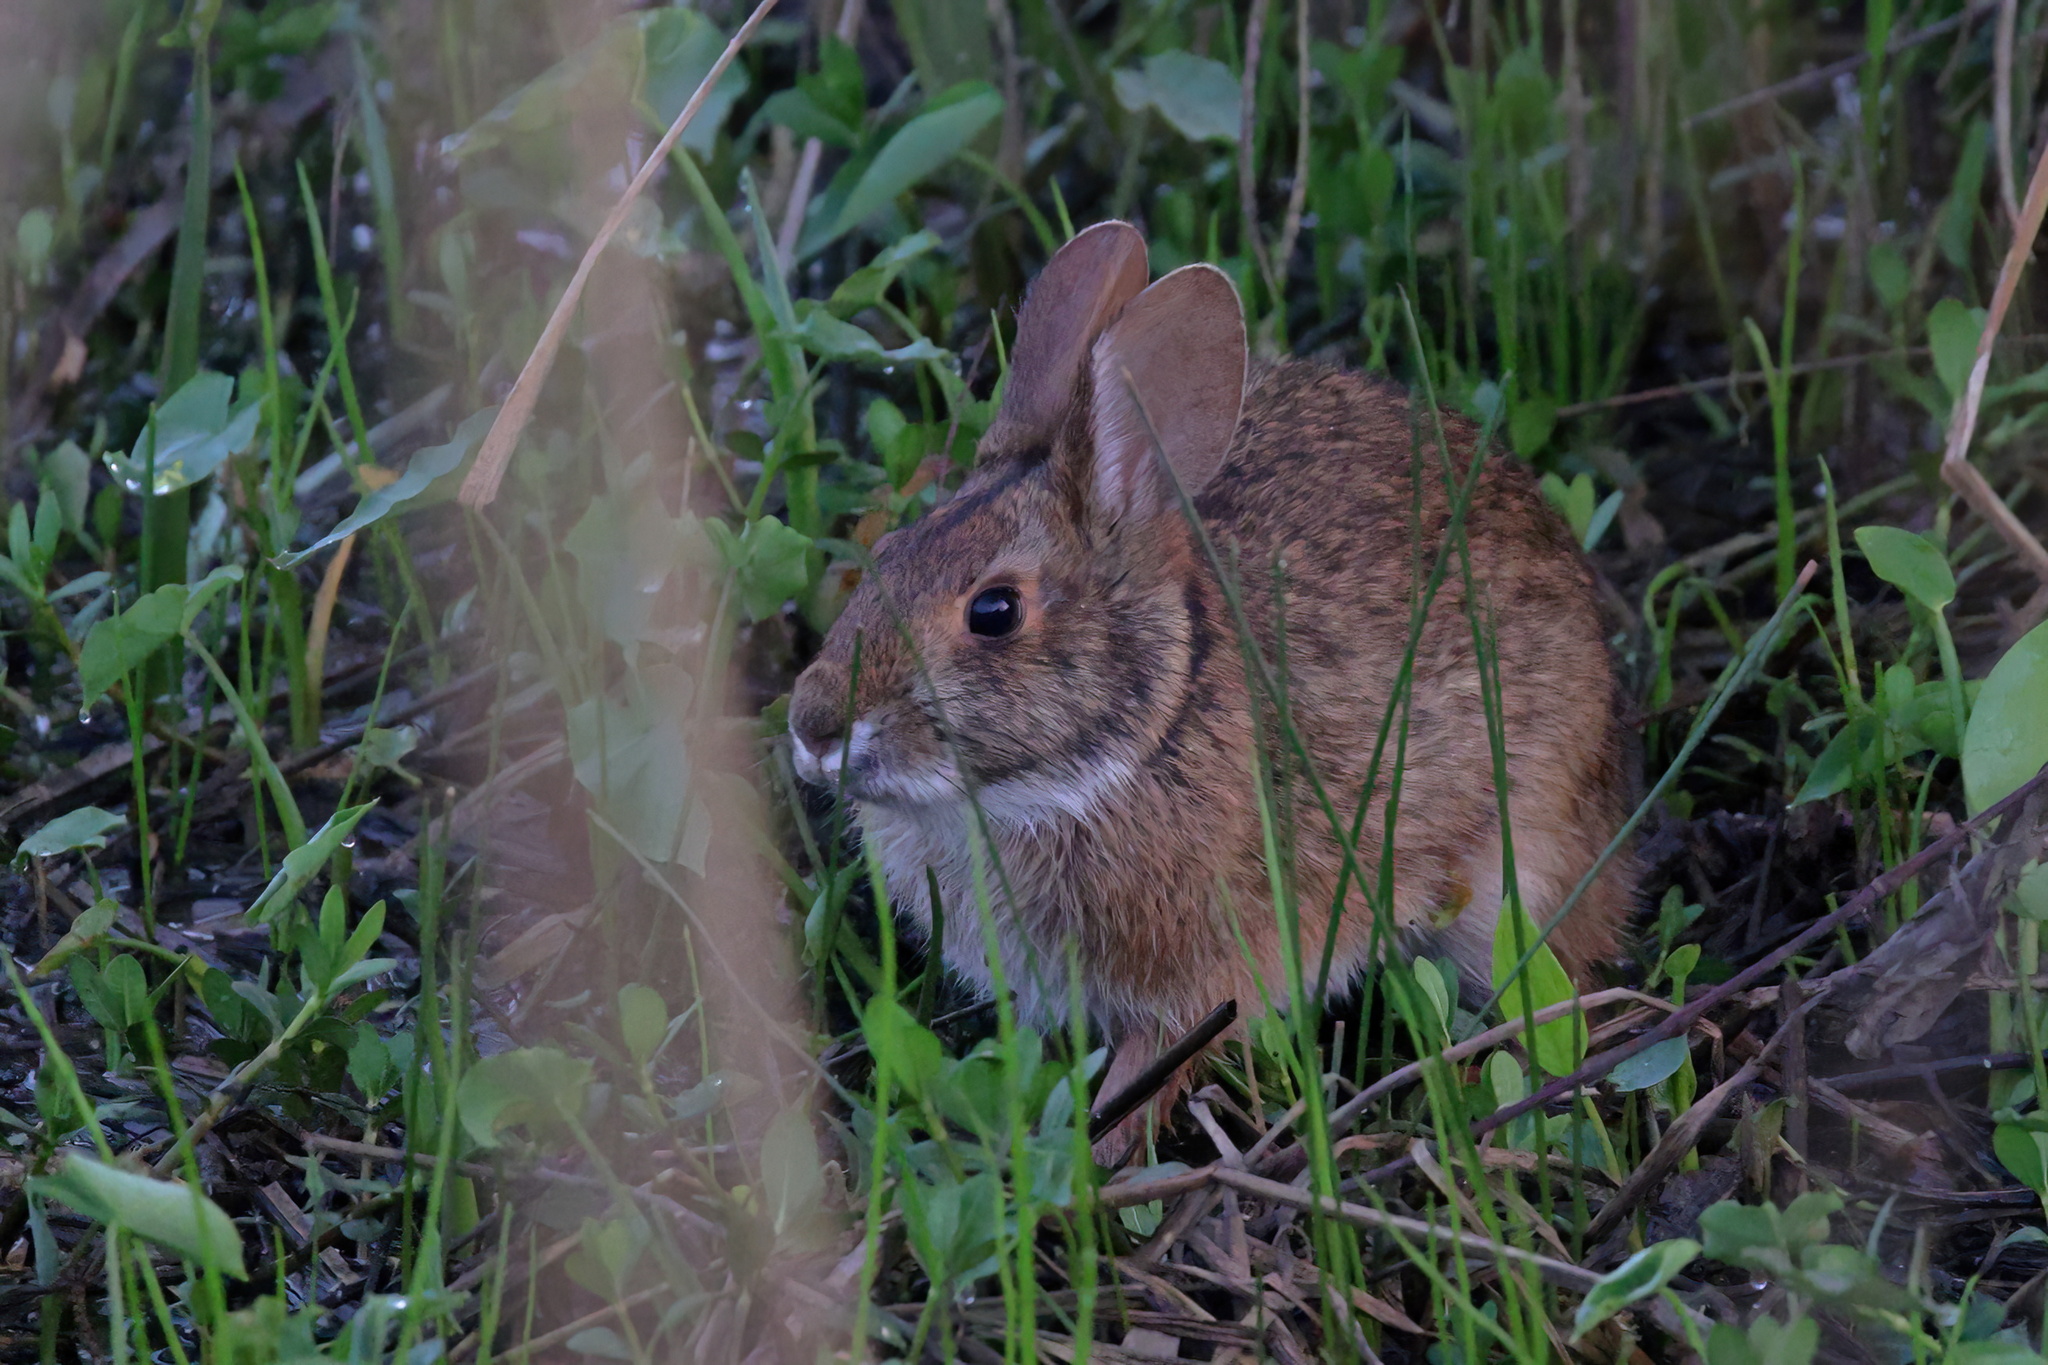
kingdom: Animalia
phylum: Chordata
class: Mammalia
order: Lagomorpha
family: Leporidae
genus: Sylvilagus
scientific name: Sylvilagus aquaticus
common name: Swamp rabbit
